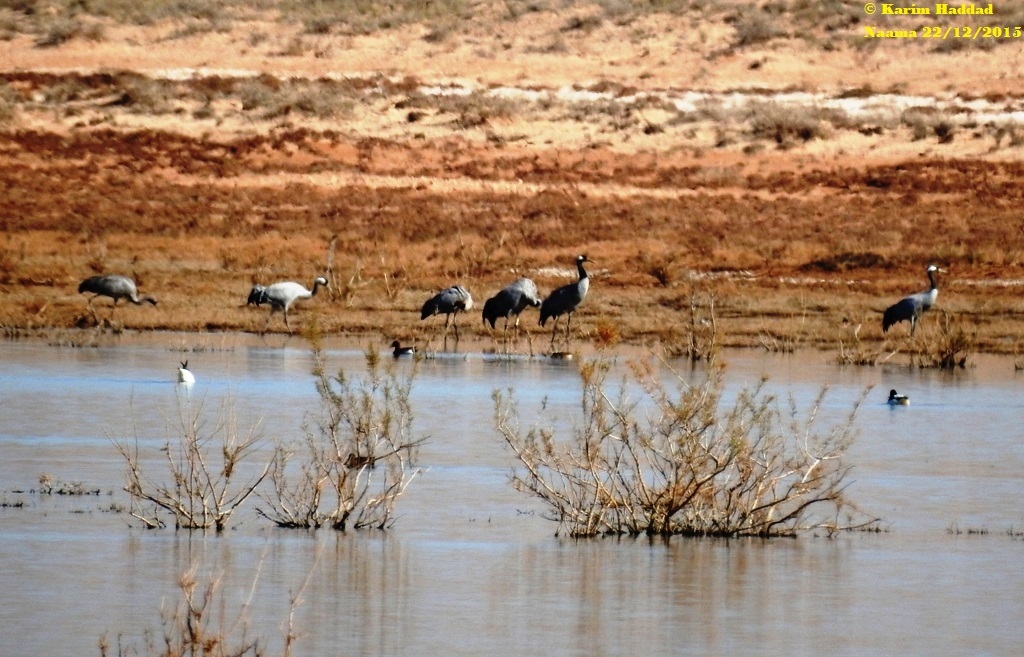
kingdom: Animalia
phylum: Chordata
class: Aves
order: Gruiformes
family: Gruidae
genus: Grus
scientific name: Grus grus
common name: Common crane
